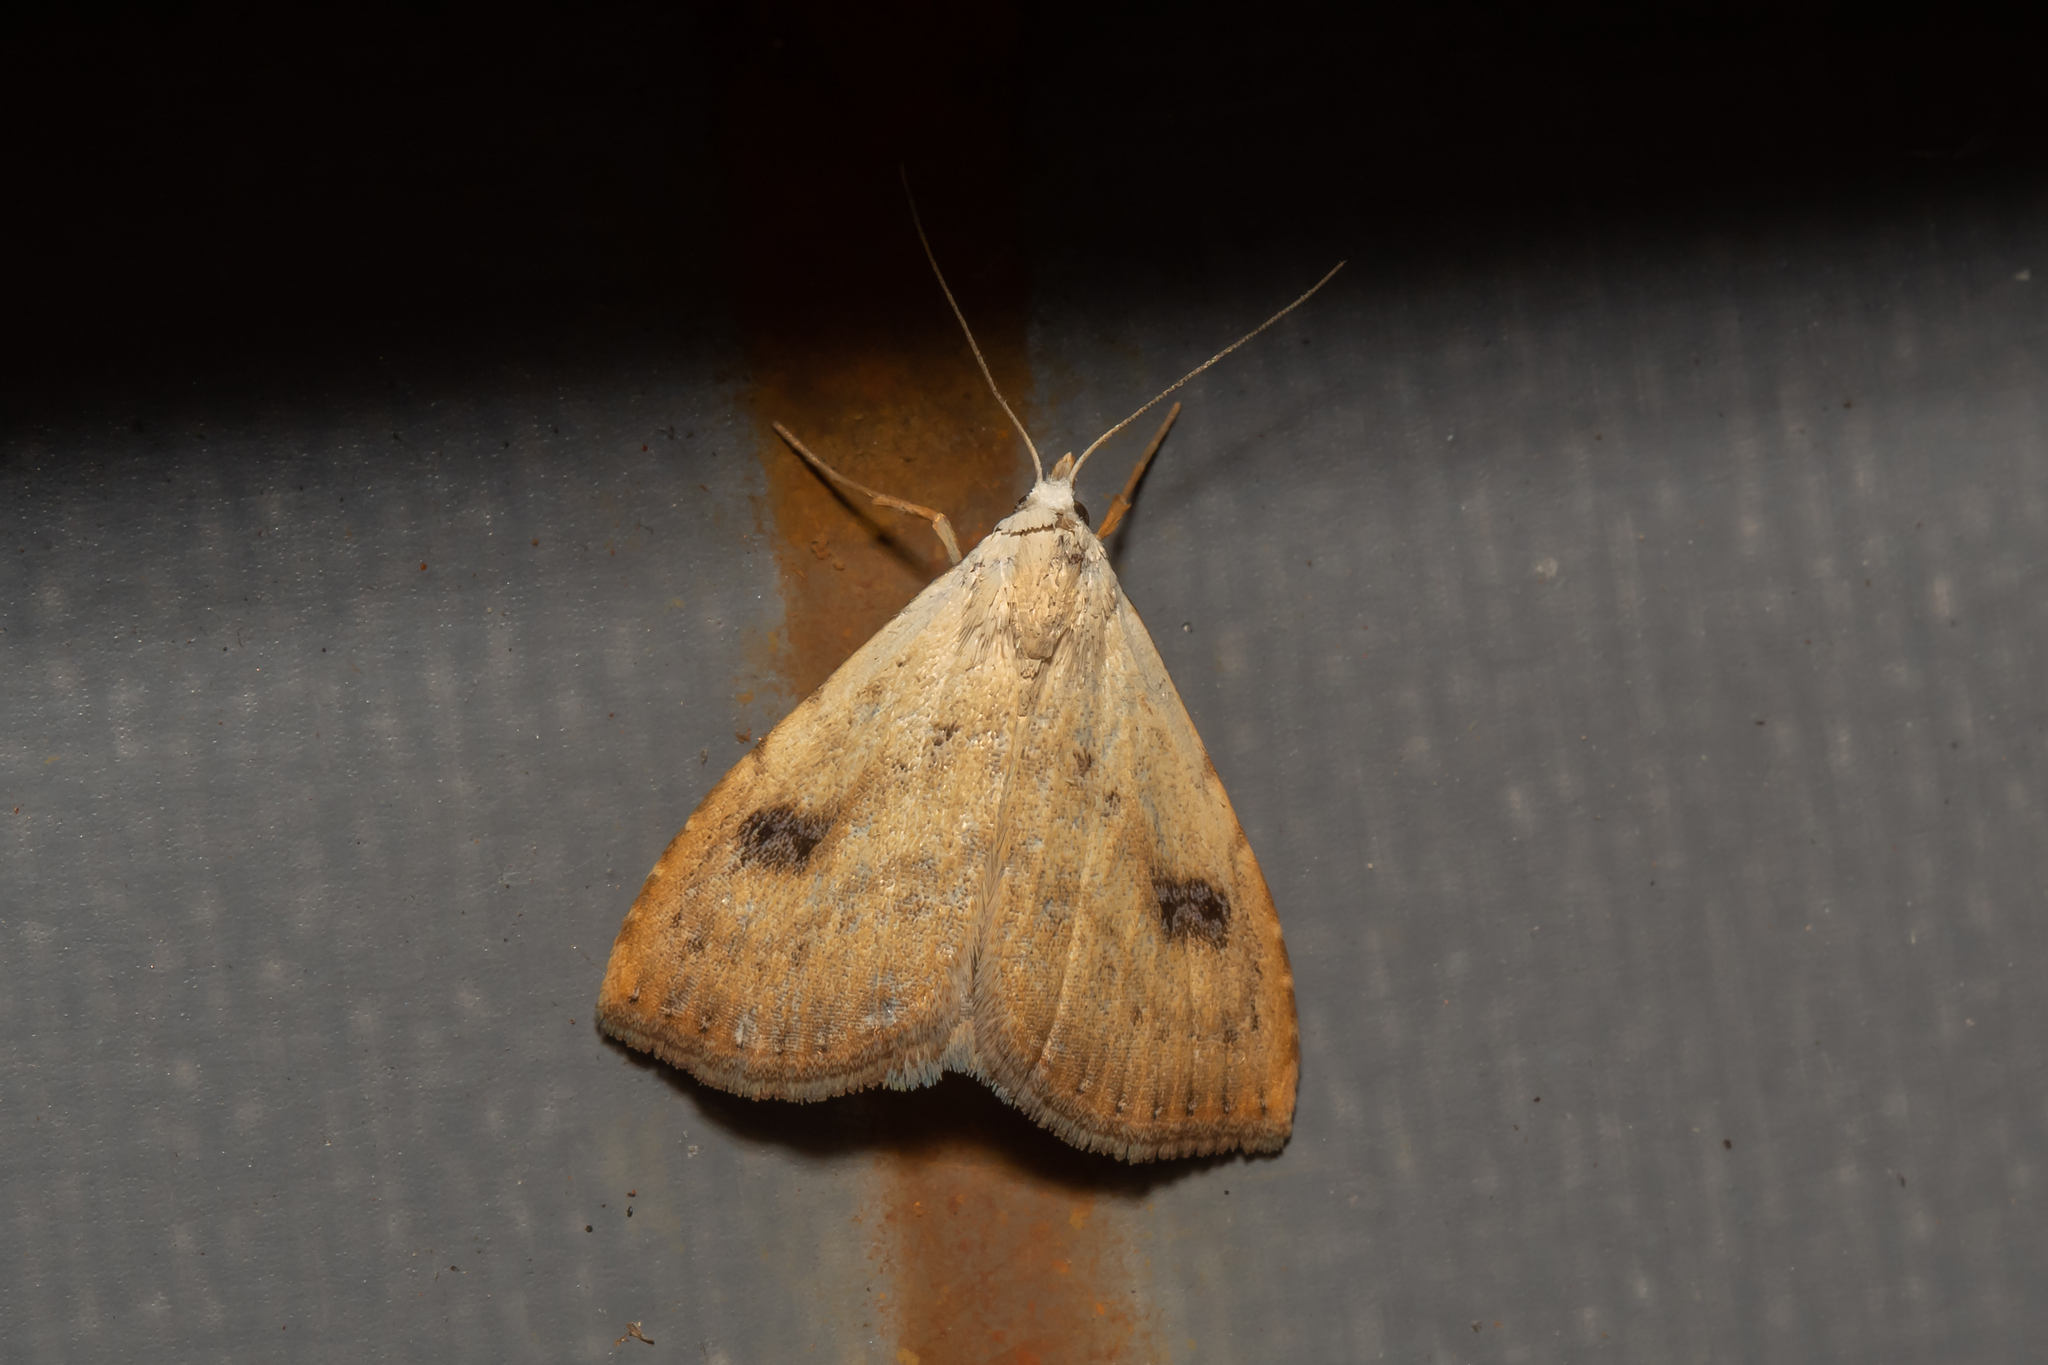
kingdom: Animalia
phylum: Arthropoda
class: Insecta
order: Lepidoptera
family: Erebidae
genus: Rivula
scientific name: Rivula sericealis
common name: Straw dot
